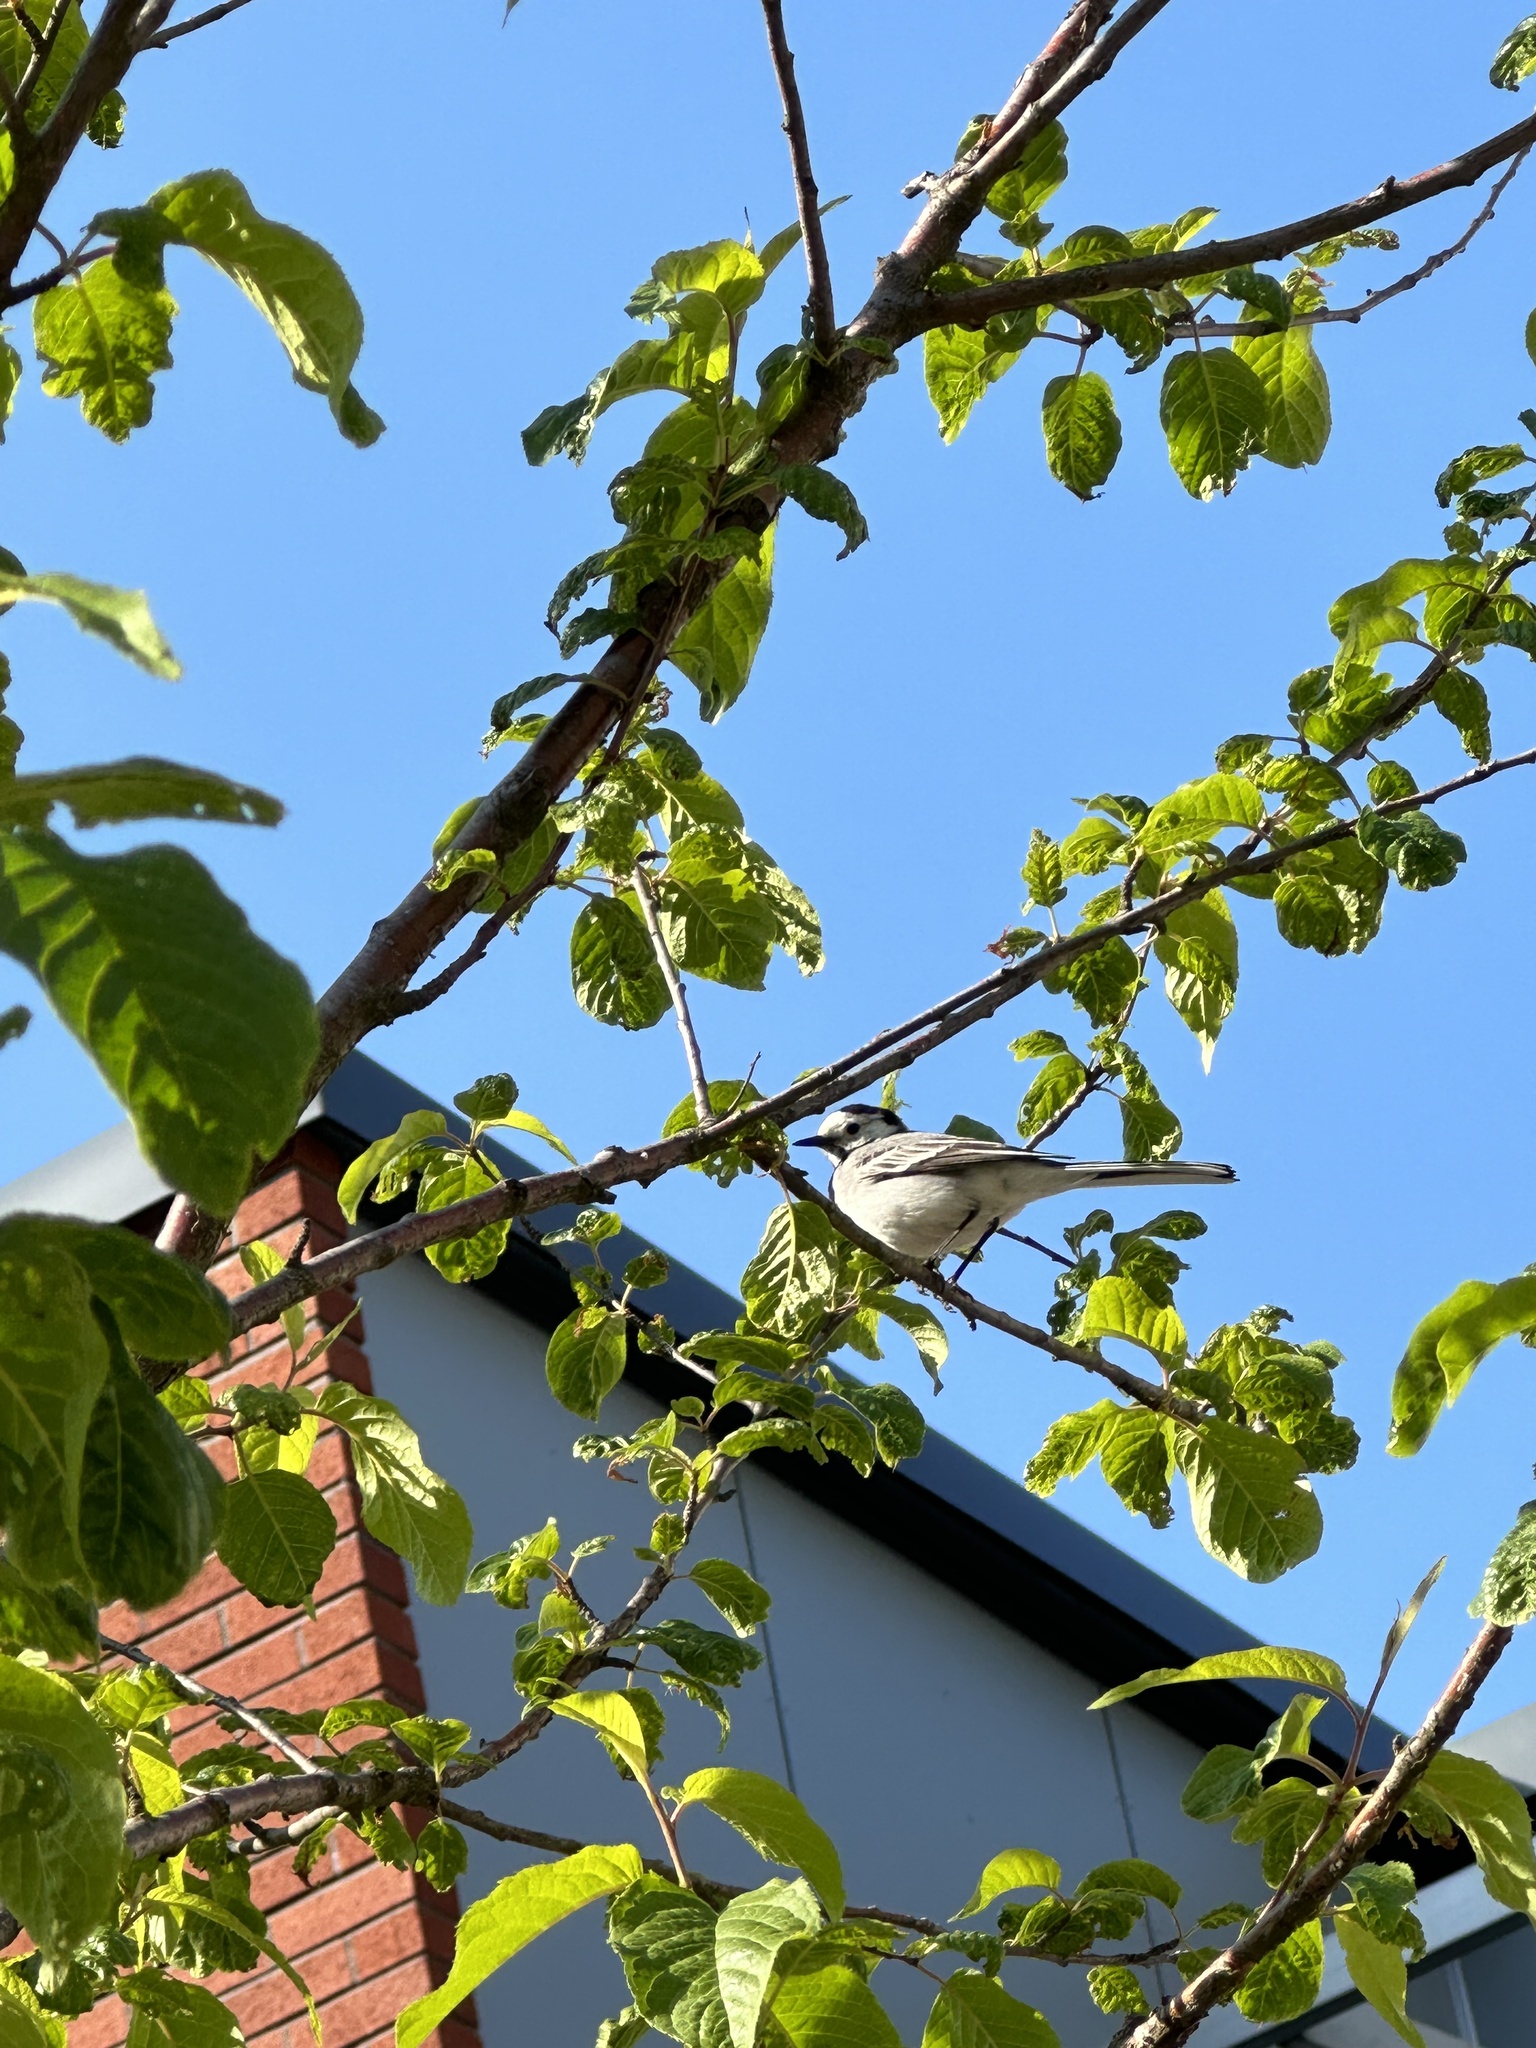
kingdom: Animalia
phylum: Chordata
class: Aves
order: Passeriformes
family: Motacillidae
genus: Motacilla
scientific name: Motacilla alba
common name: White wagtail
